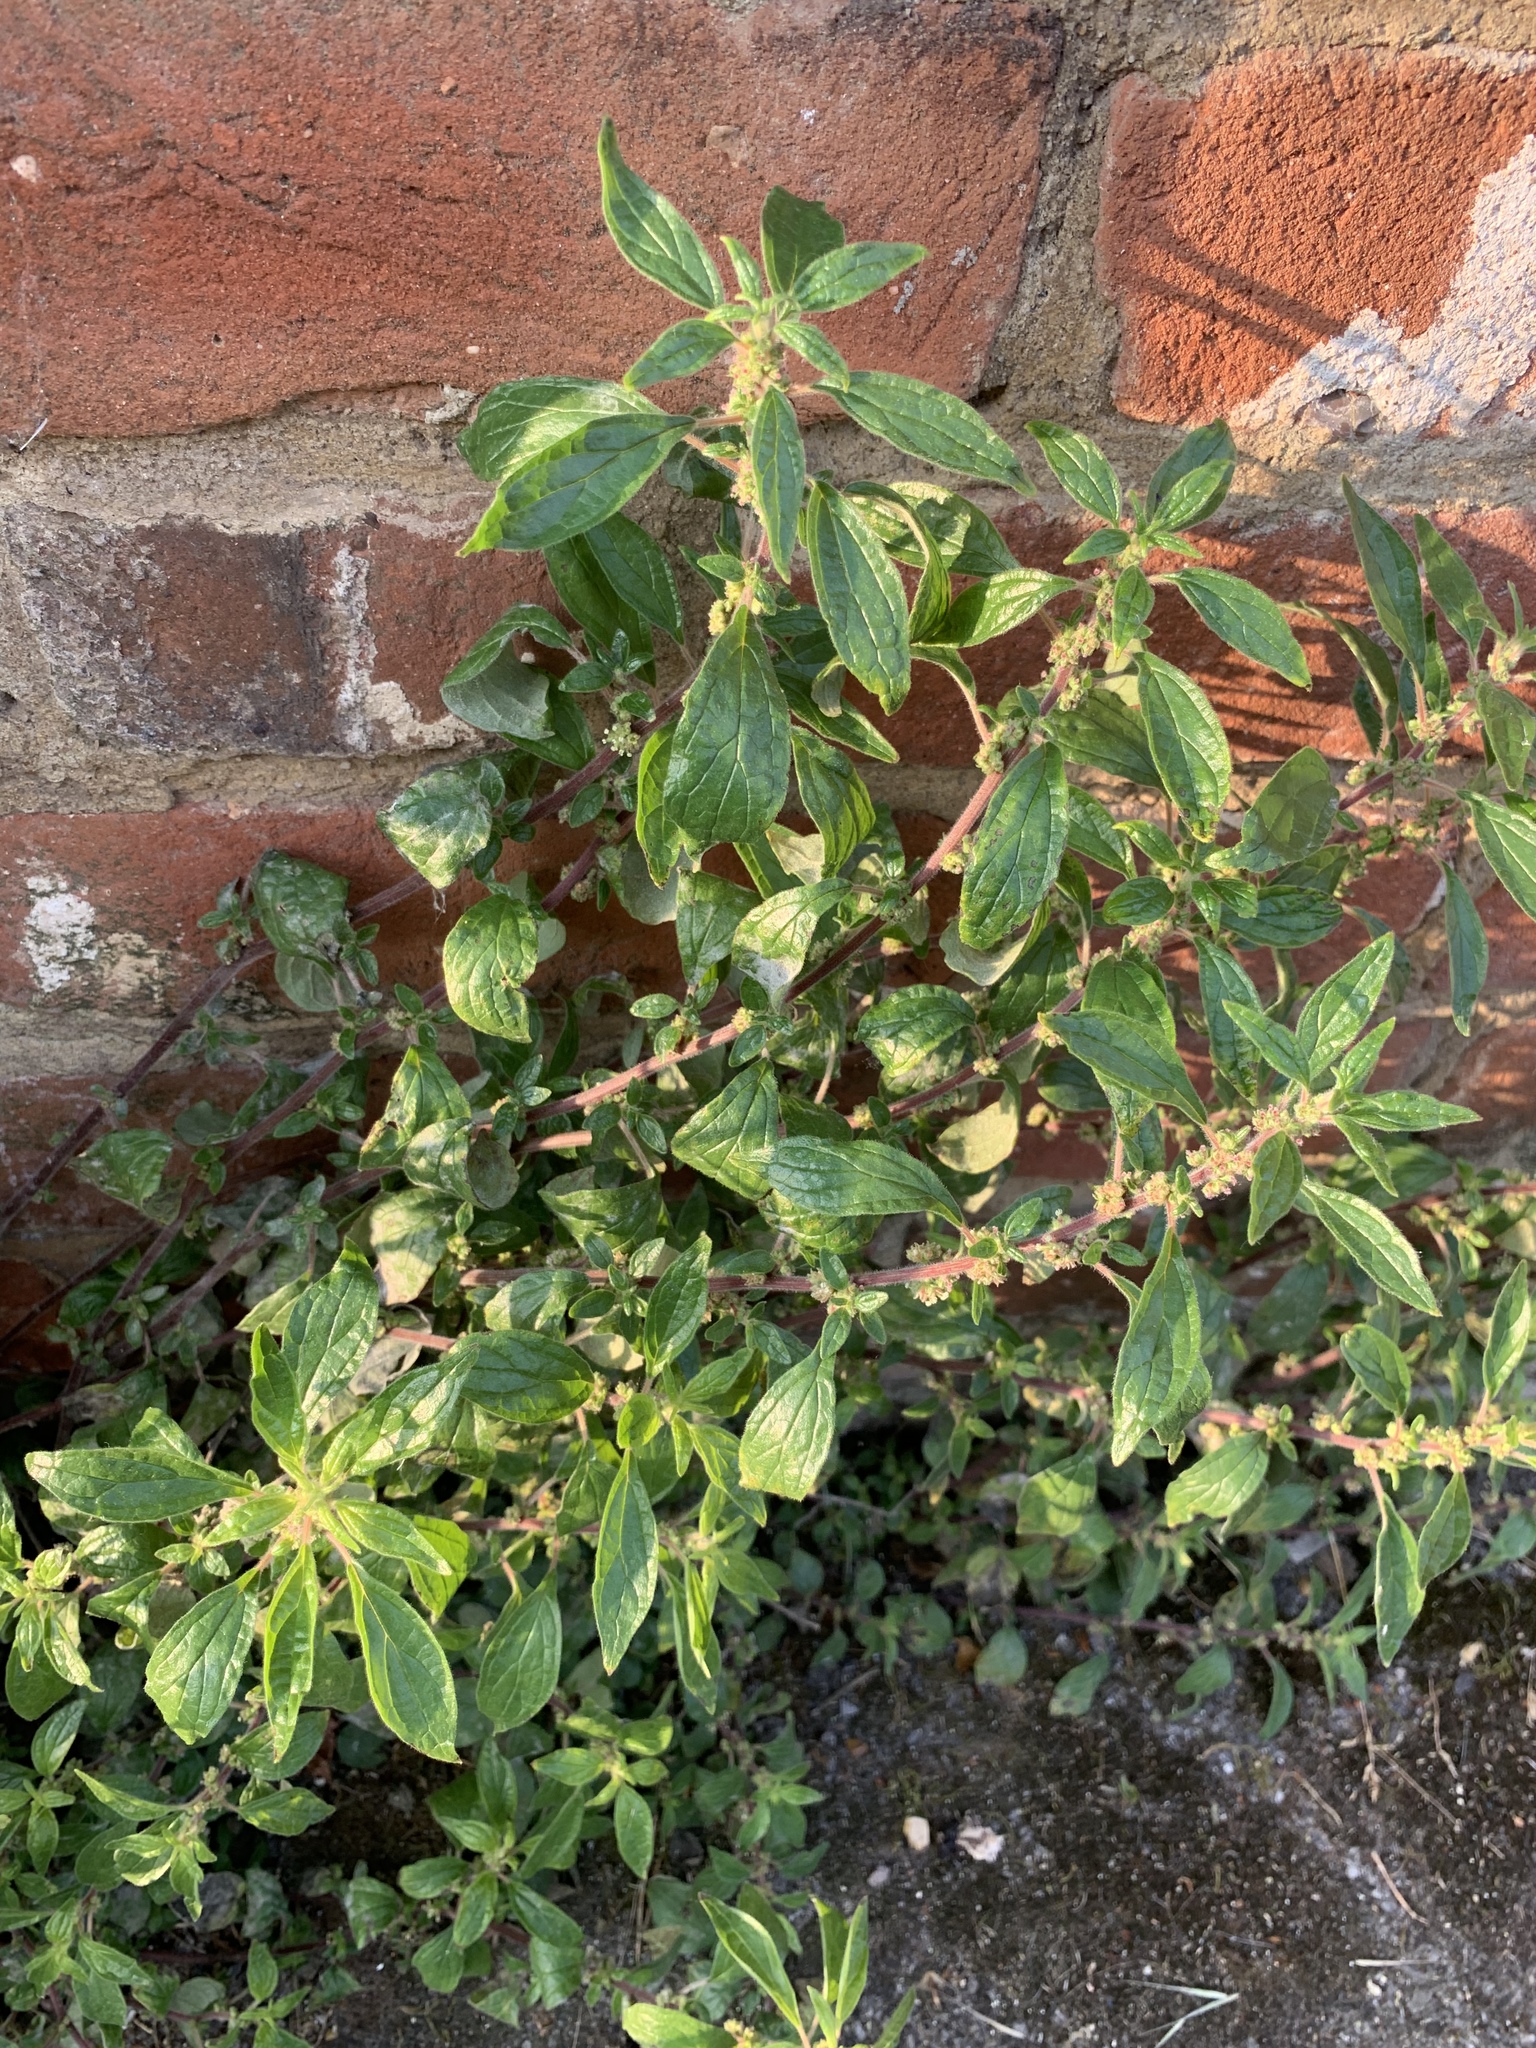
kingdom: Plantae
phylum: Tracheophyta
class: Magnoliopsida
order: Rosales
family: Urticaceae
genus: Parietaria
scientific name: Parietaria judaica
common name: Pellitory-of-the-wall
